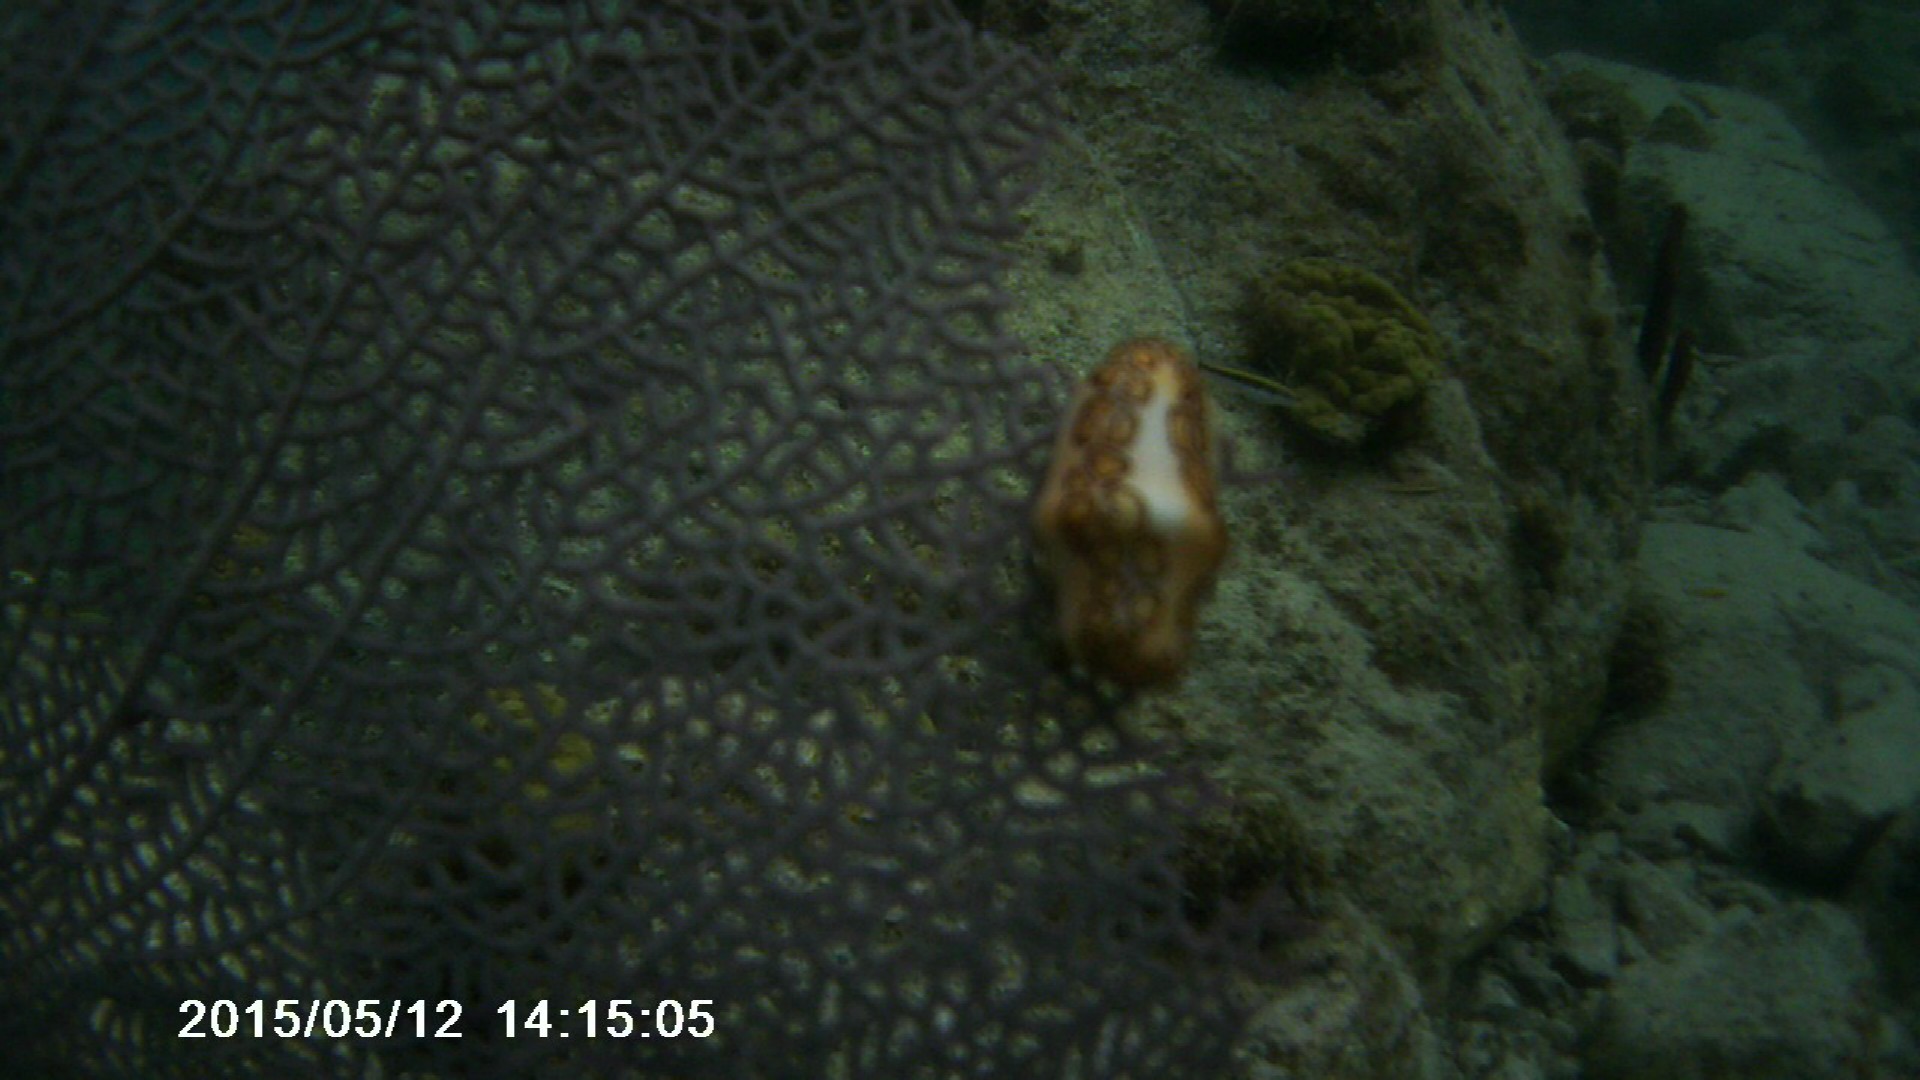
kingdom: Animalia
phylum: Cnidaria
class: Anthozoa
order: Malacalcyonacea
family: Gorgoniidae
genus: Gorgonia
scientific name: Gorgonia ventalina
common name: Common sea fan
